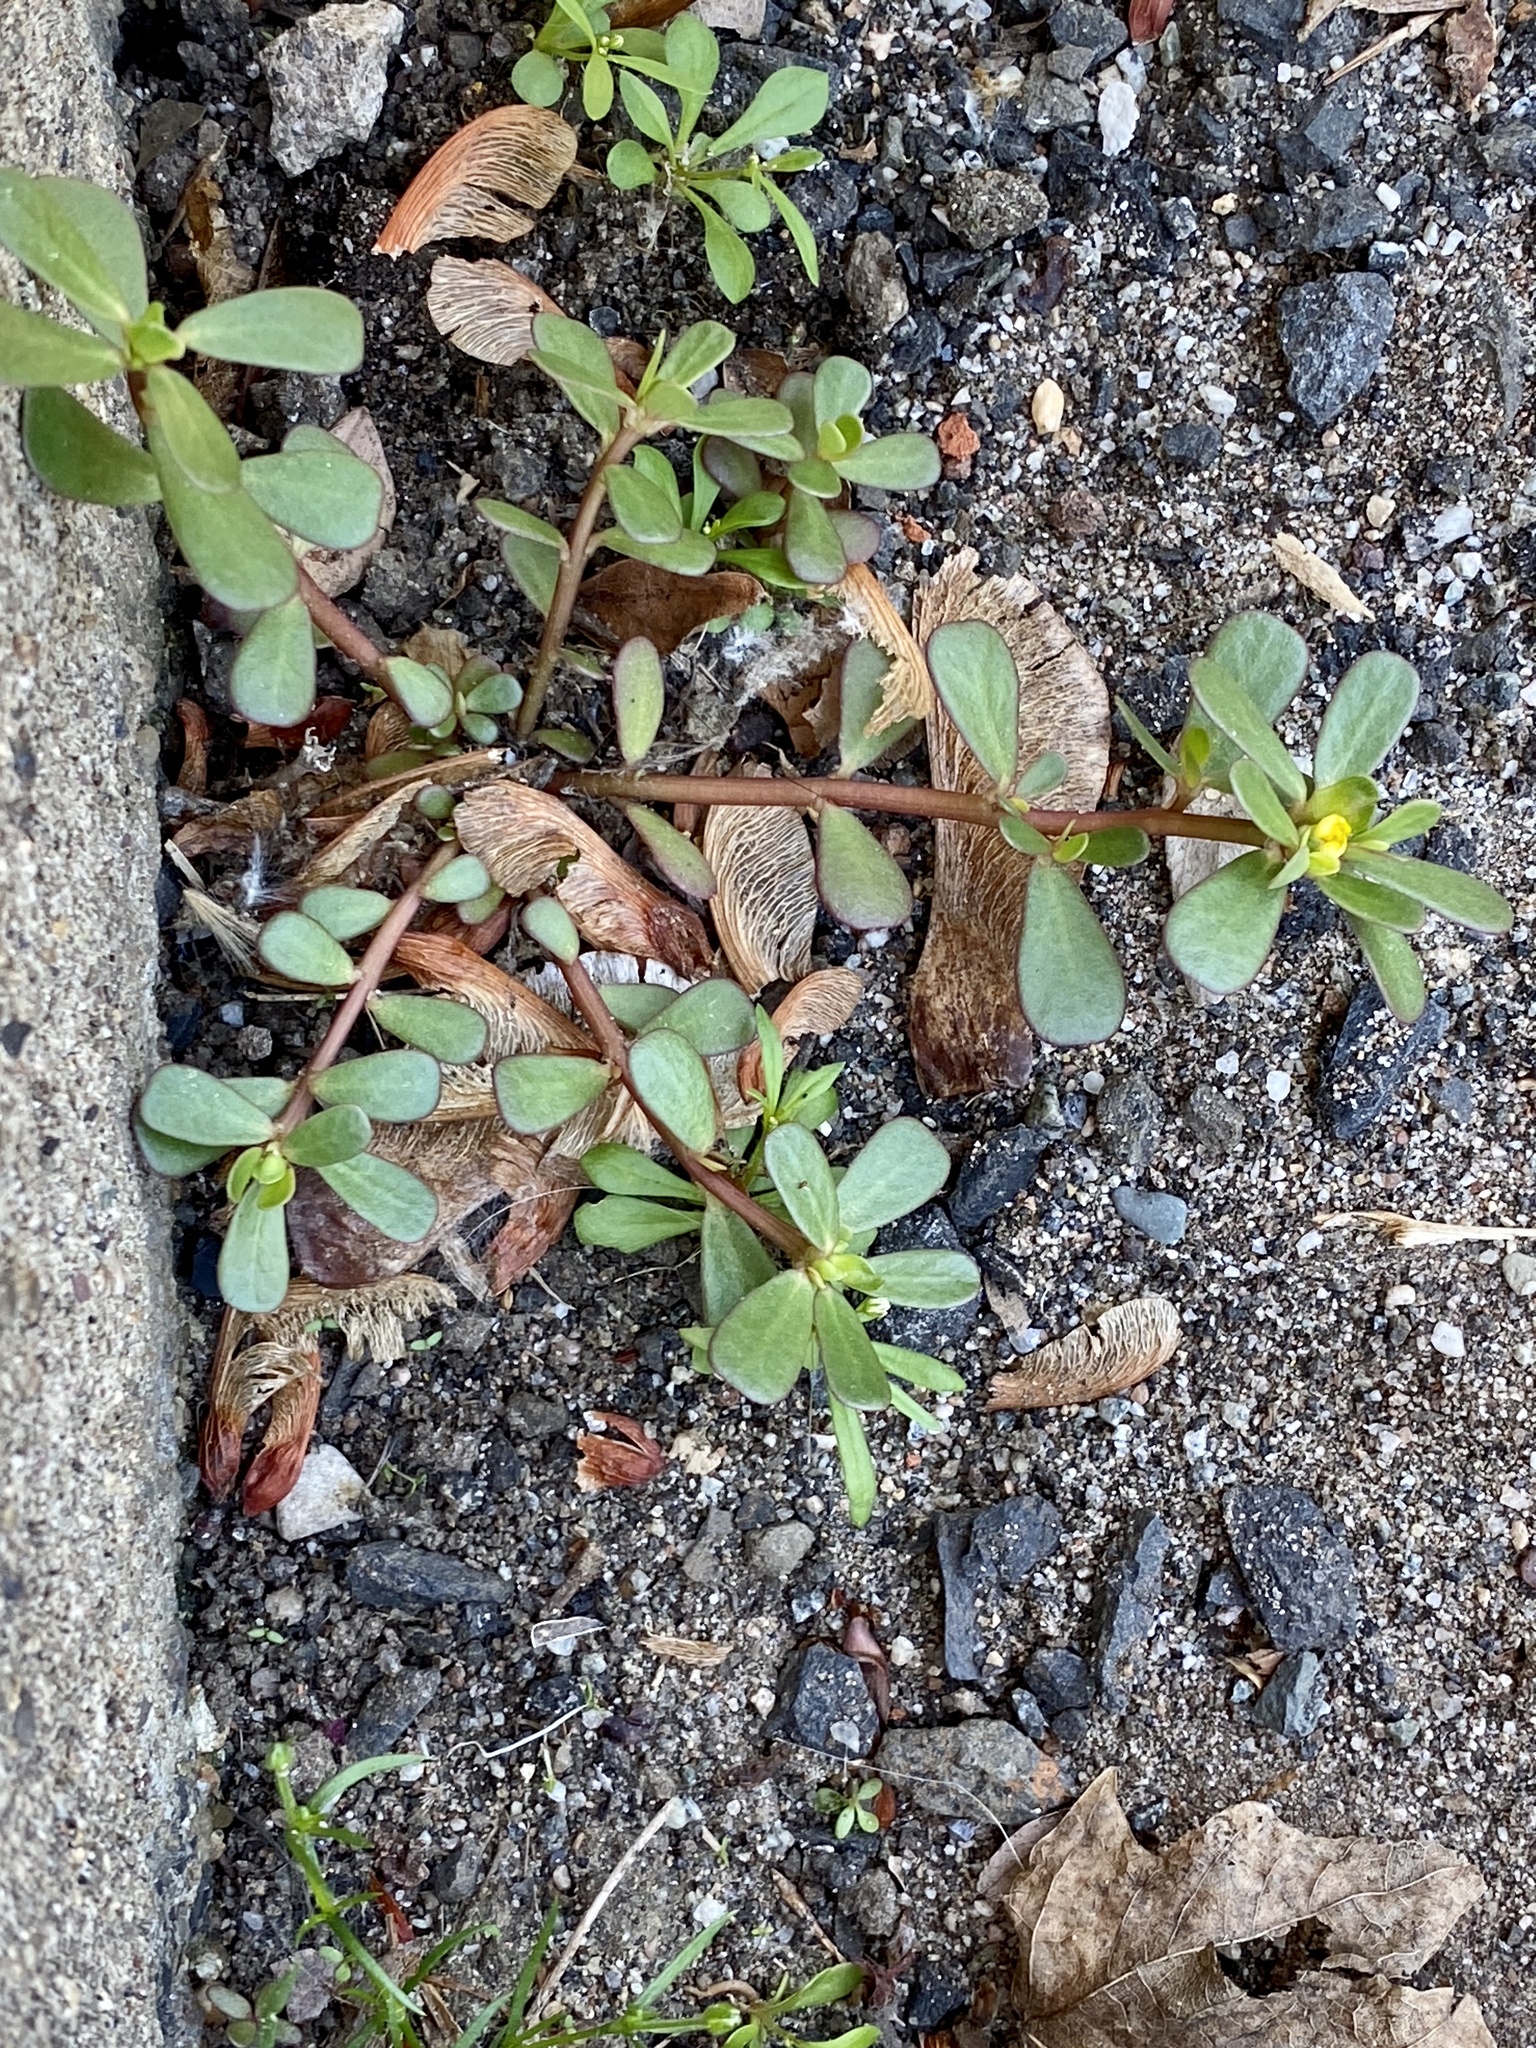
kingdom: Plantae
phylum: Tracheophyta
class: Magnoliopsida
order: Caryophyllales
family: Portulacaceae
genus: Portulaca
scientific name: Portulaca oleracea
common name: Common purslane
